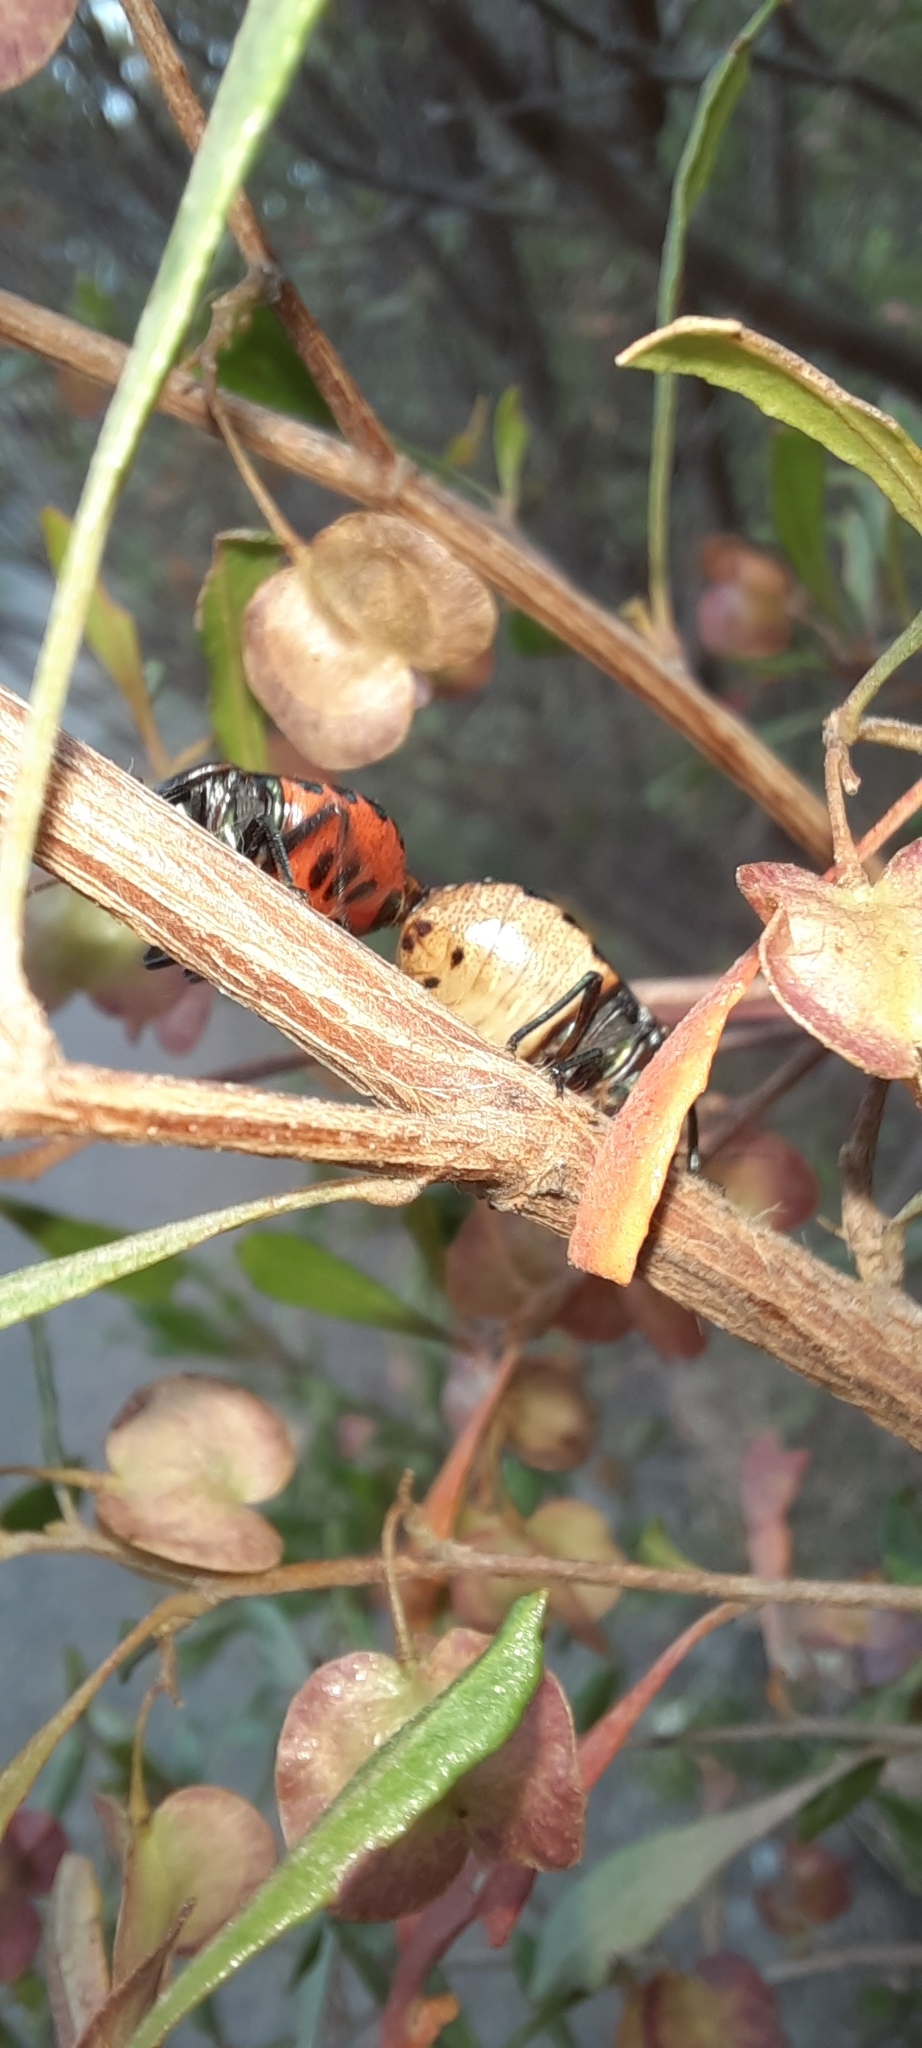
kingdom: Animalia
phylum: Arthropoda
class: Insecta
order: Hemiptera
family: Scutelleridae
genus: Choerocoris
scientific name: Choerocoris paganus
